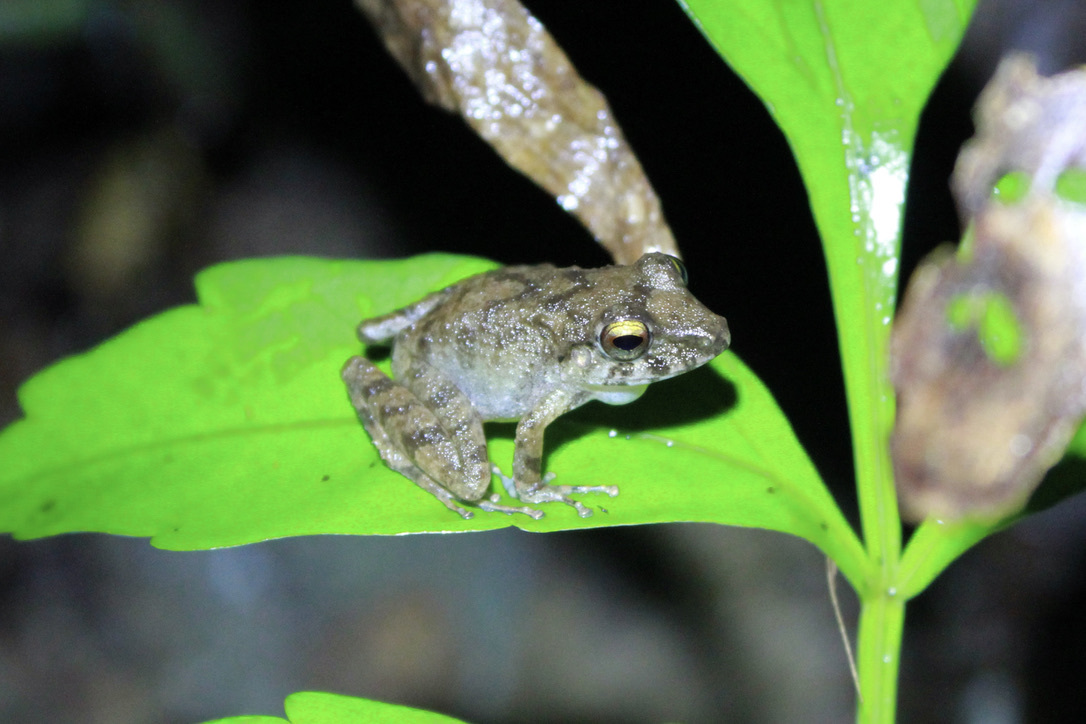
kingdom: Animalia
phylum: Chordata
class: Amphibia
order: Anura
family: Craugastoridae
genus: Pristimantis
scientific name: Pristimantis charlottevillensis
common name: Charlotteville leaf-litter frog
